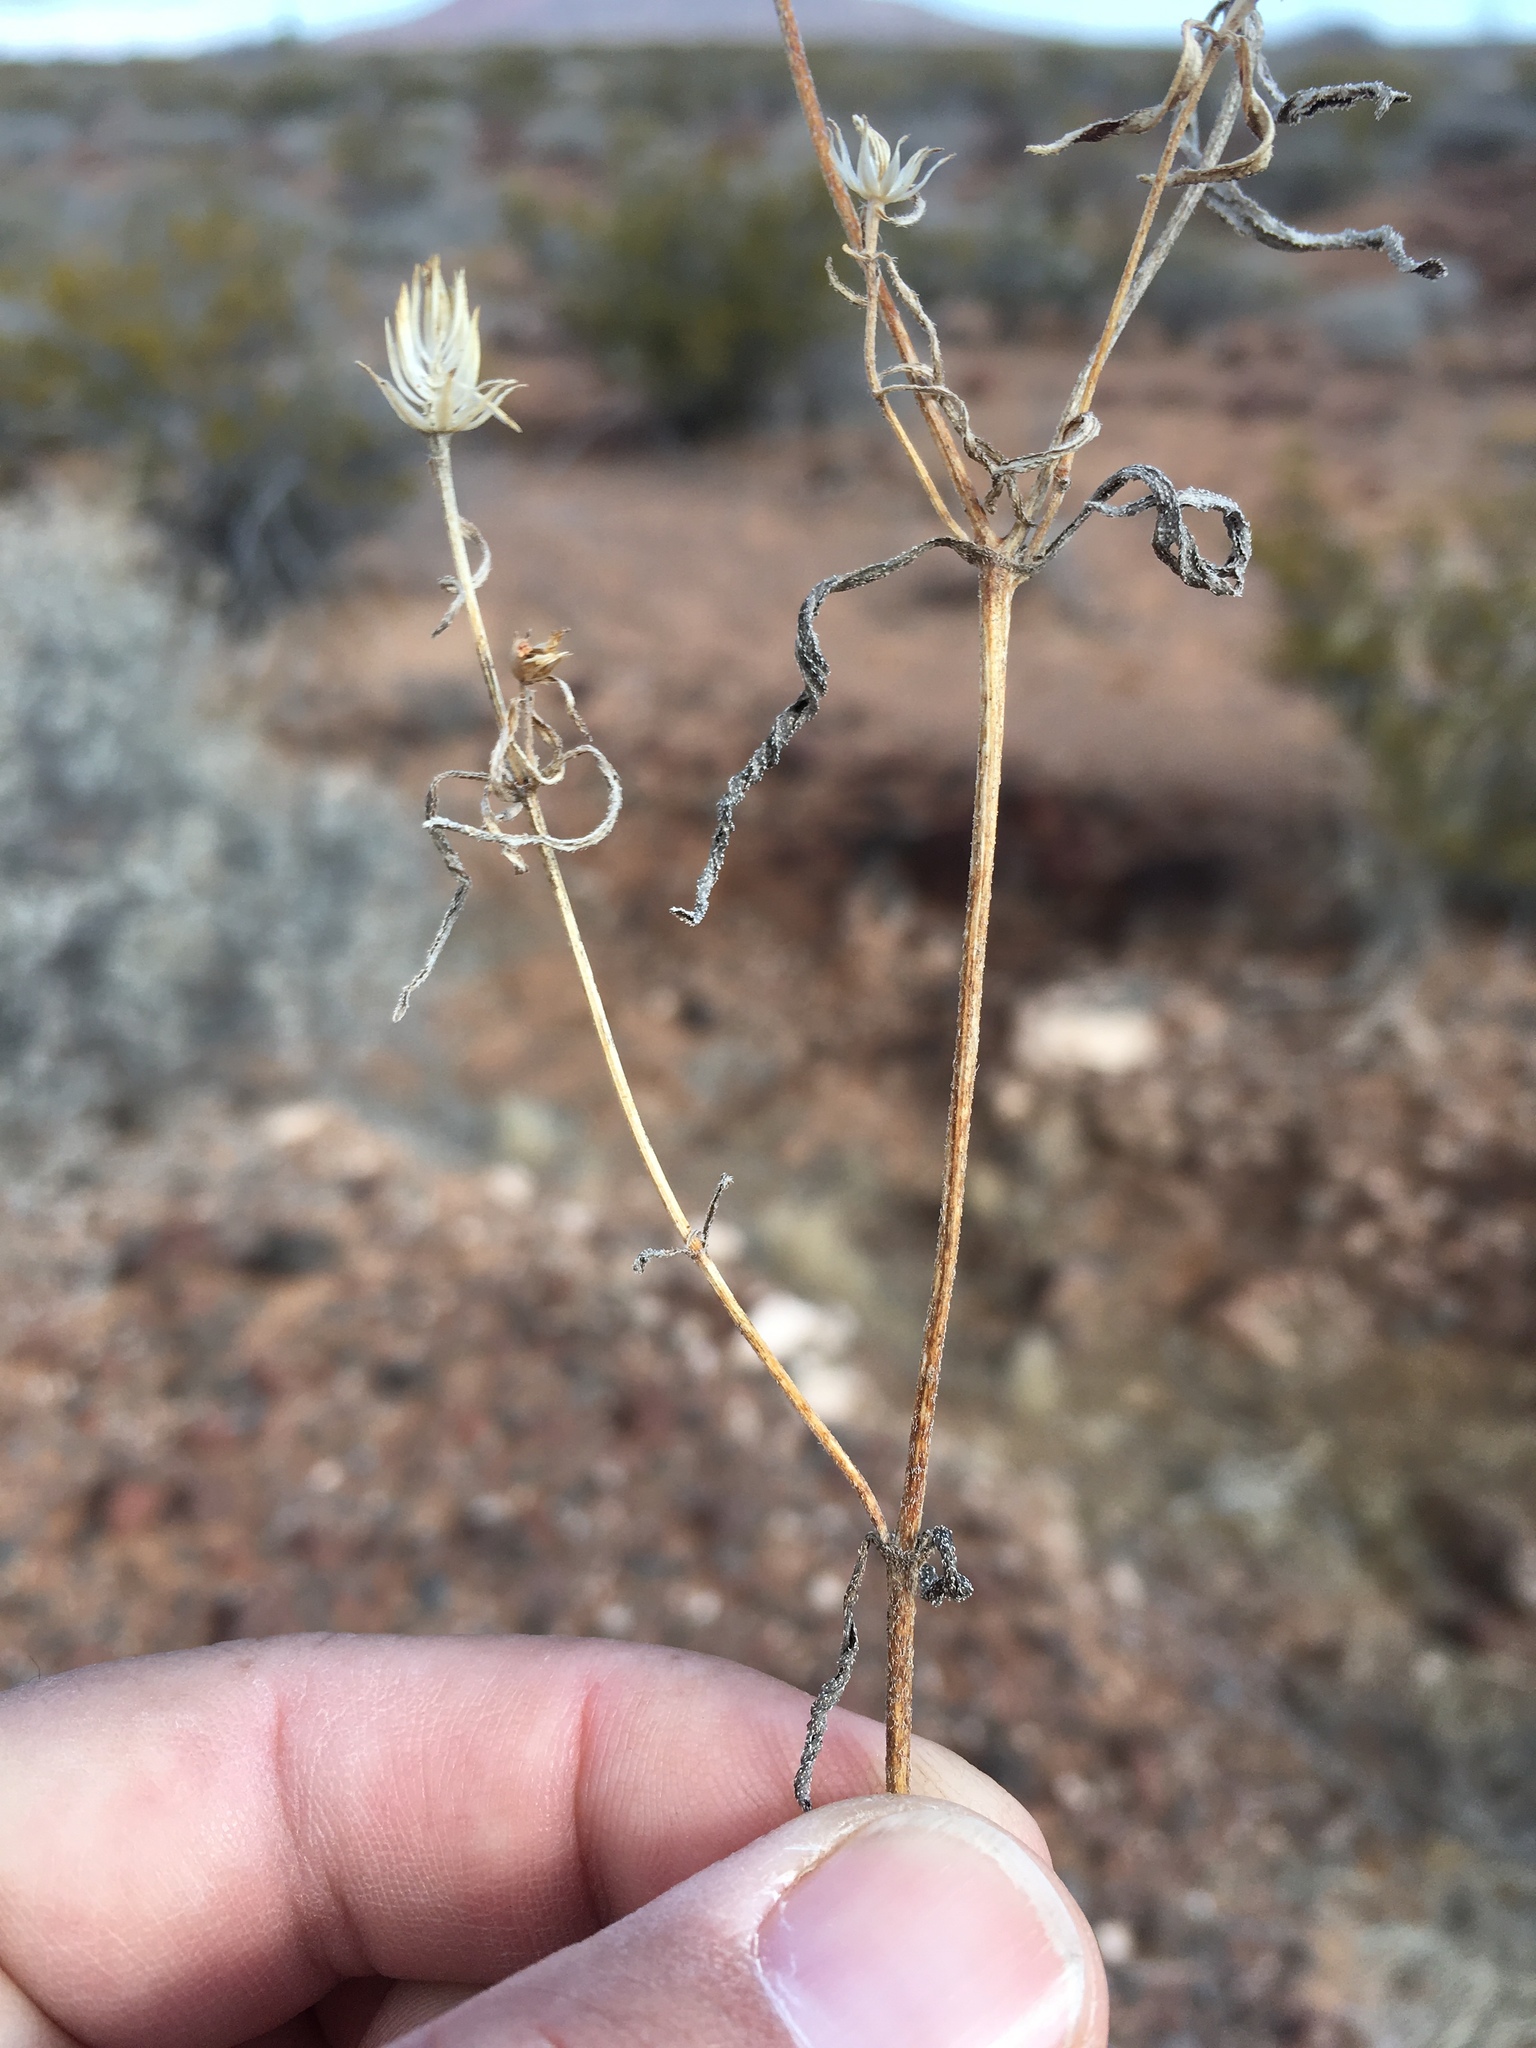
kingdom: Plantae
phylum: Tracheophyta
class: Magnoliopsida
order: Asterales
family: Asteraceae
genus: Sanvitalia
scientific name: Sanvitalia abertii
